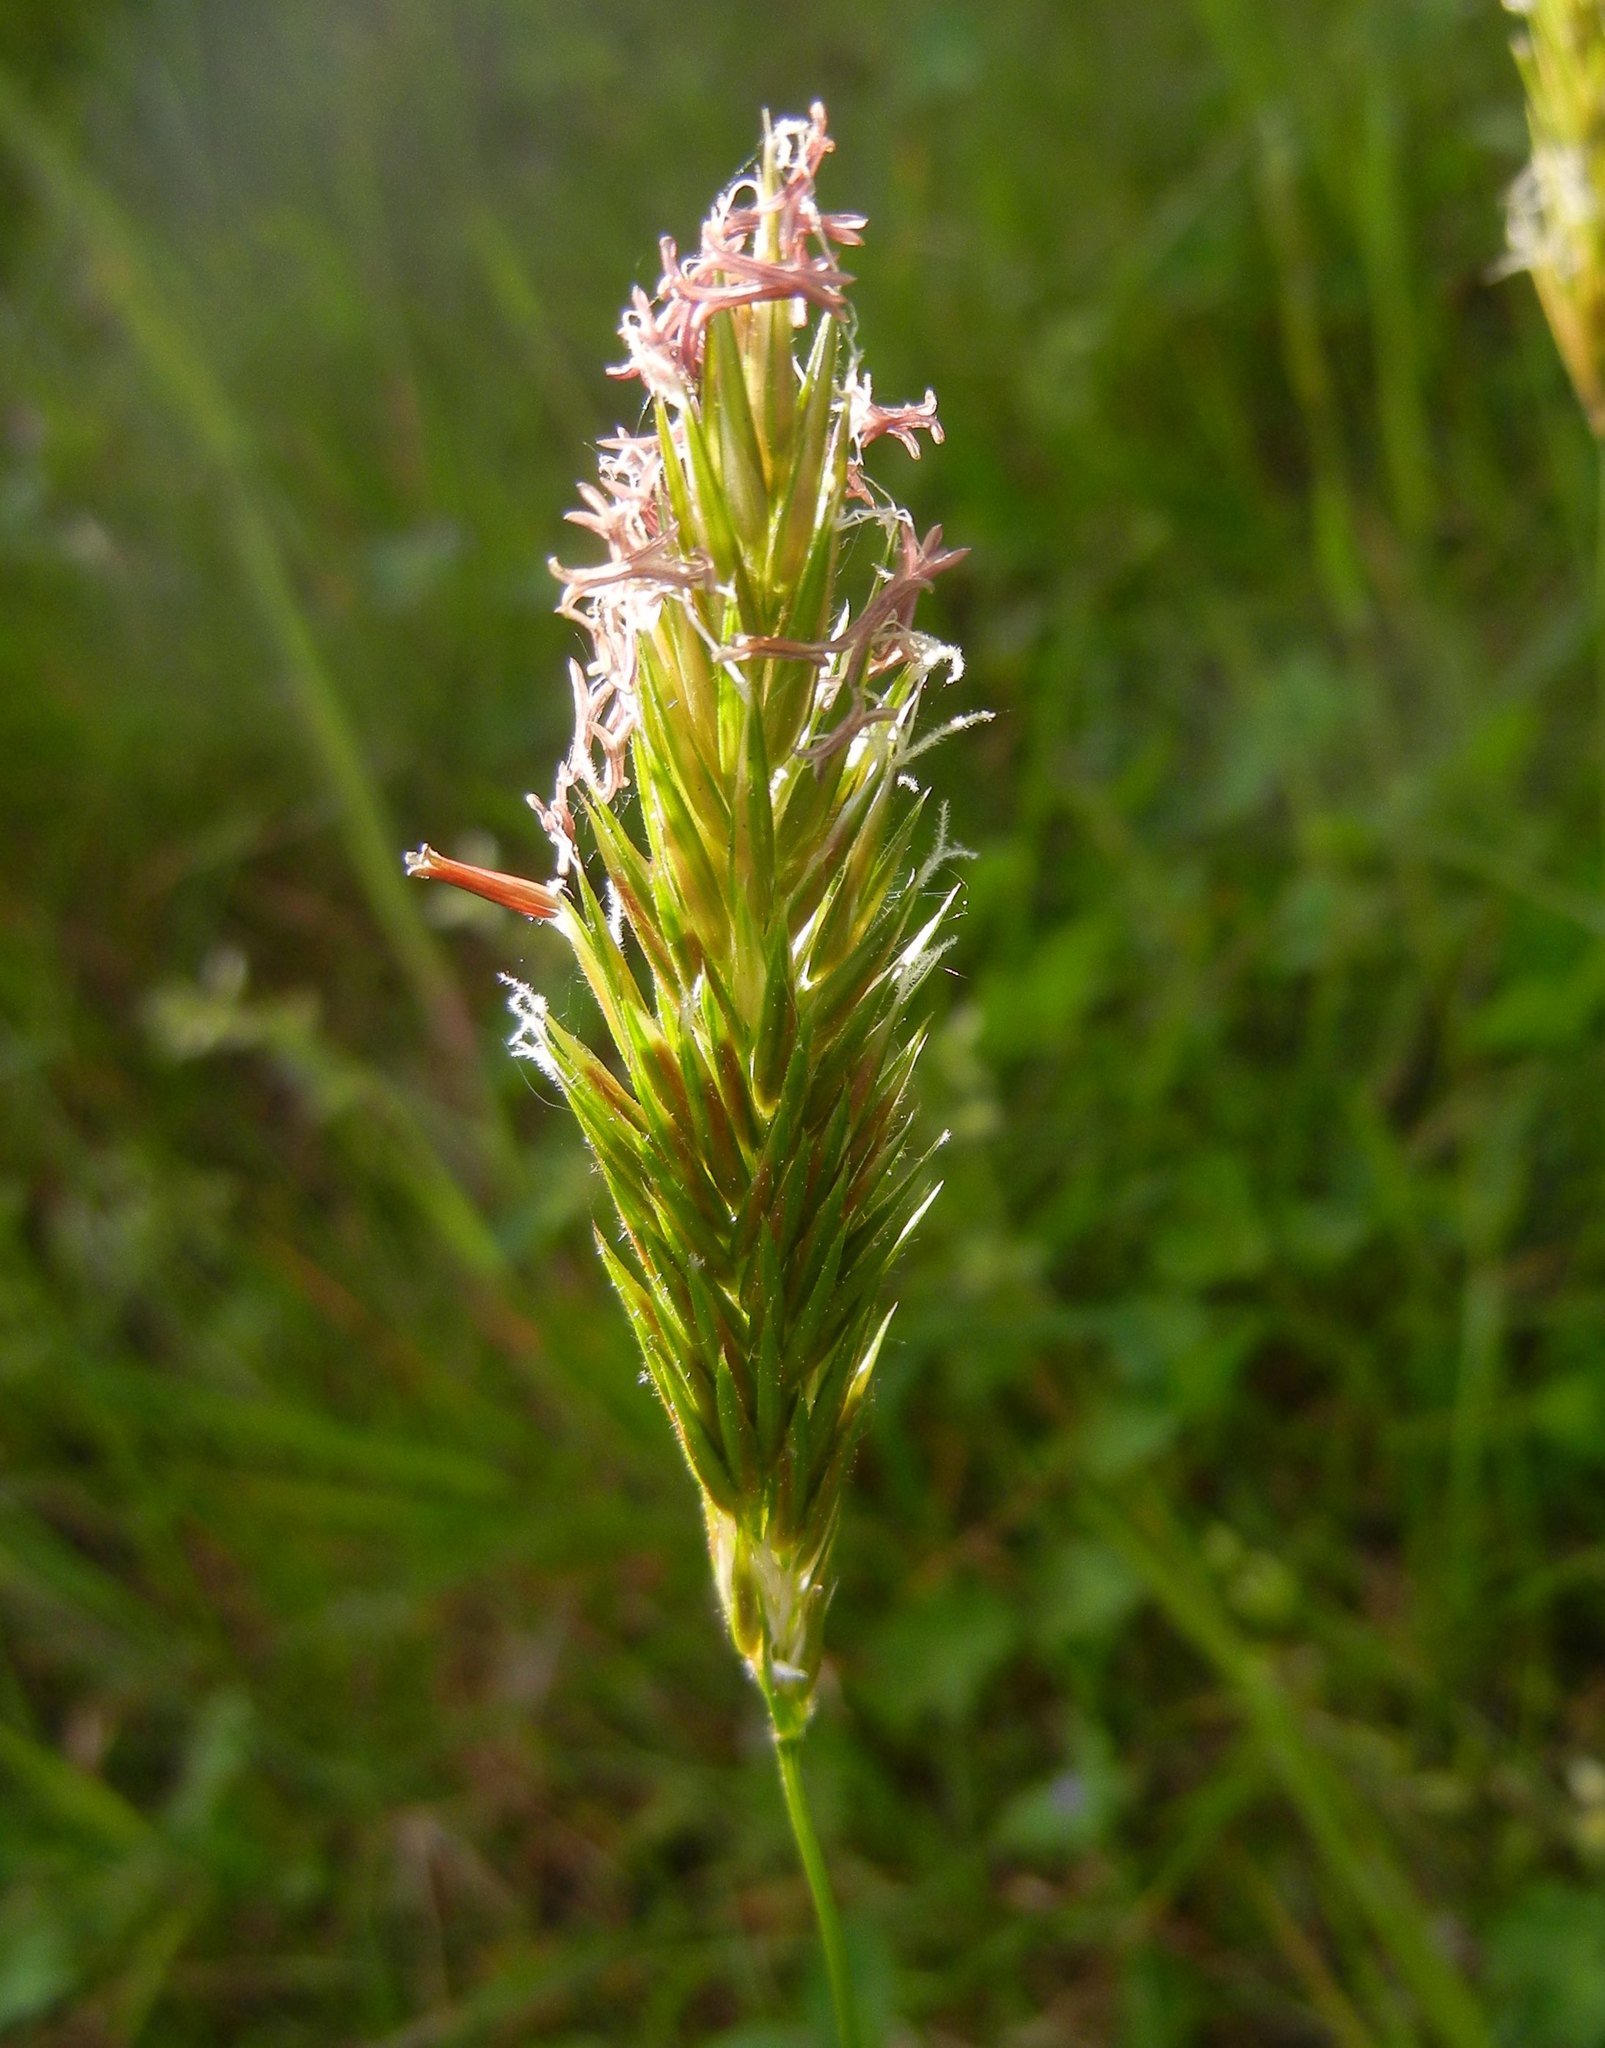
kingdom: Plantae
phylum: Tracheophyta
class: Liliopsida
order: Poales
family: Poaceae
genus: Anthoxanthum
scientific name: Anthoxanthum odoratum
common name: Sweet vernalgrass
